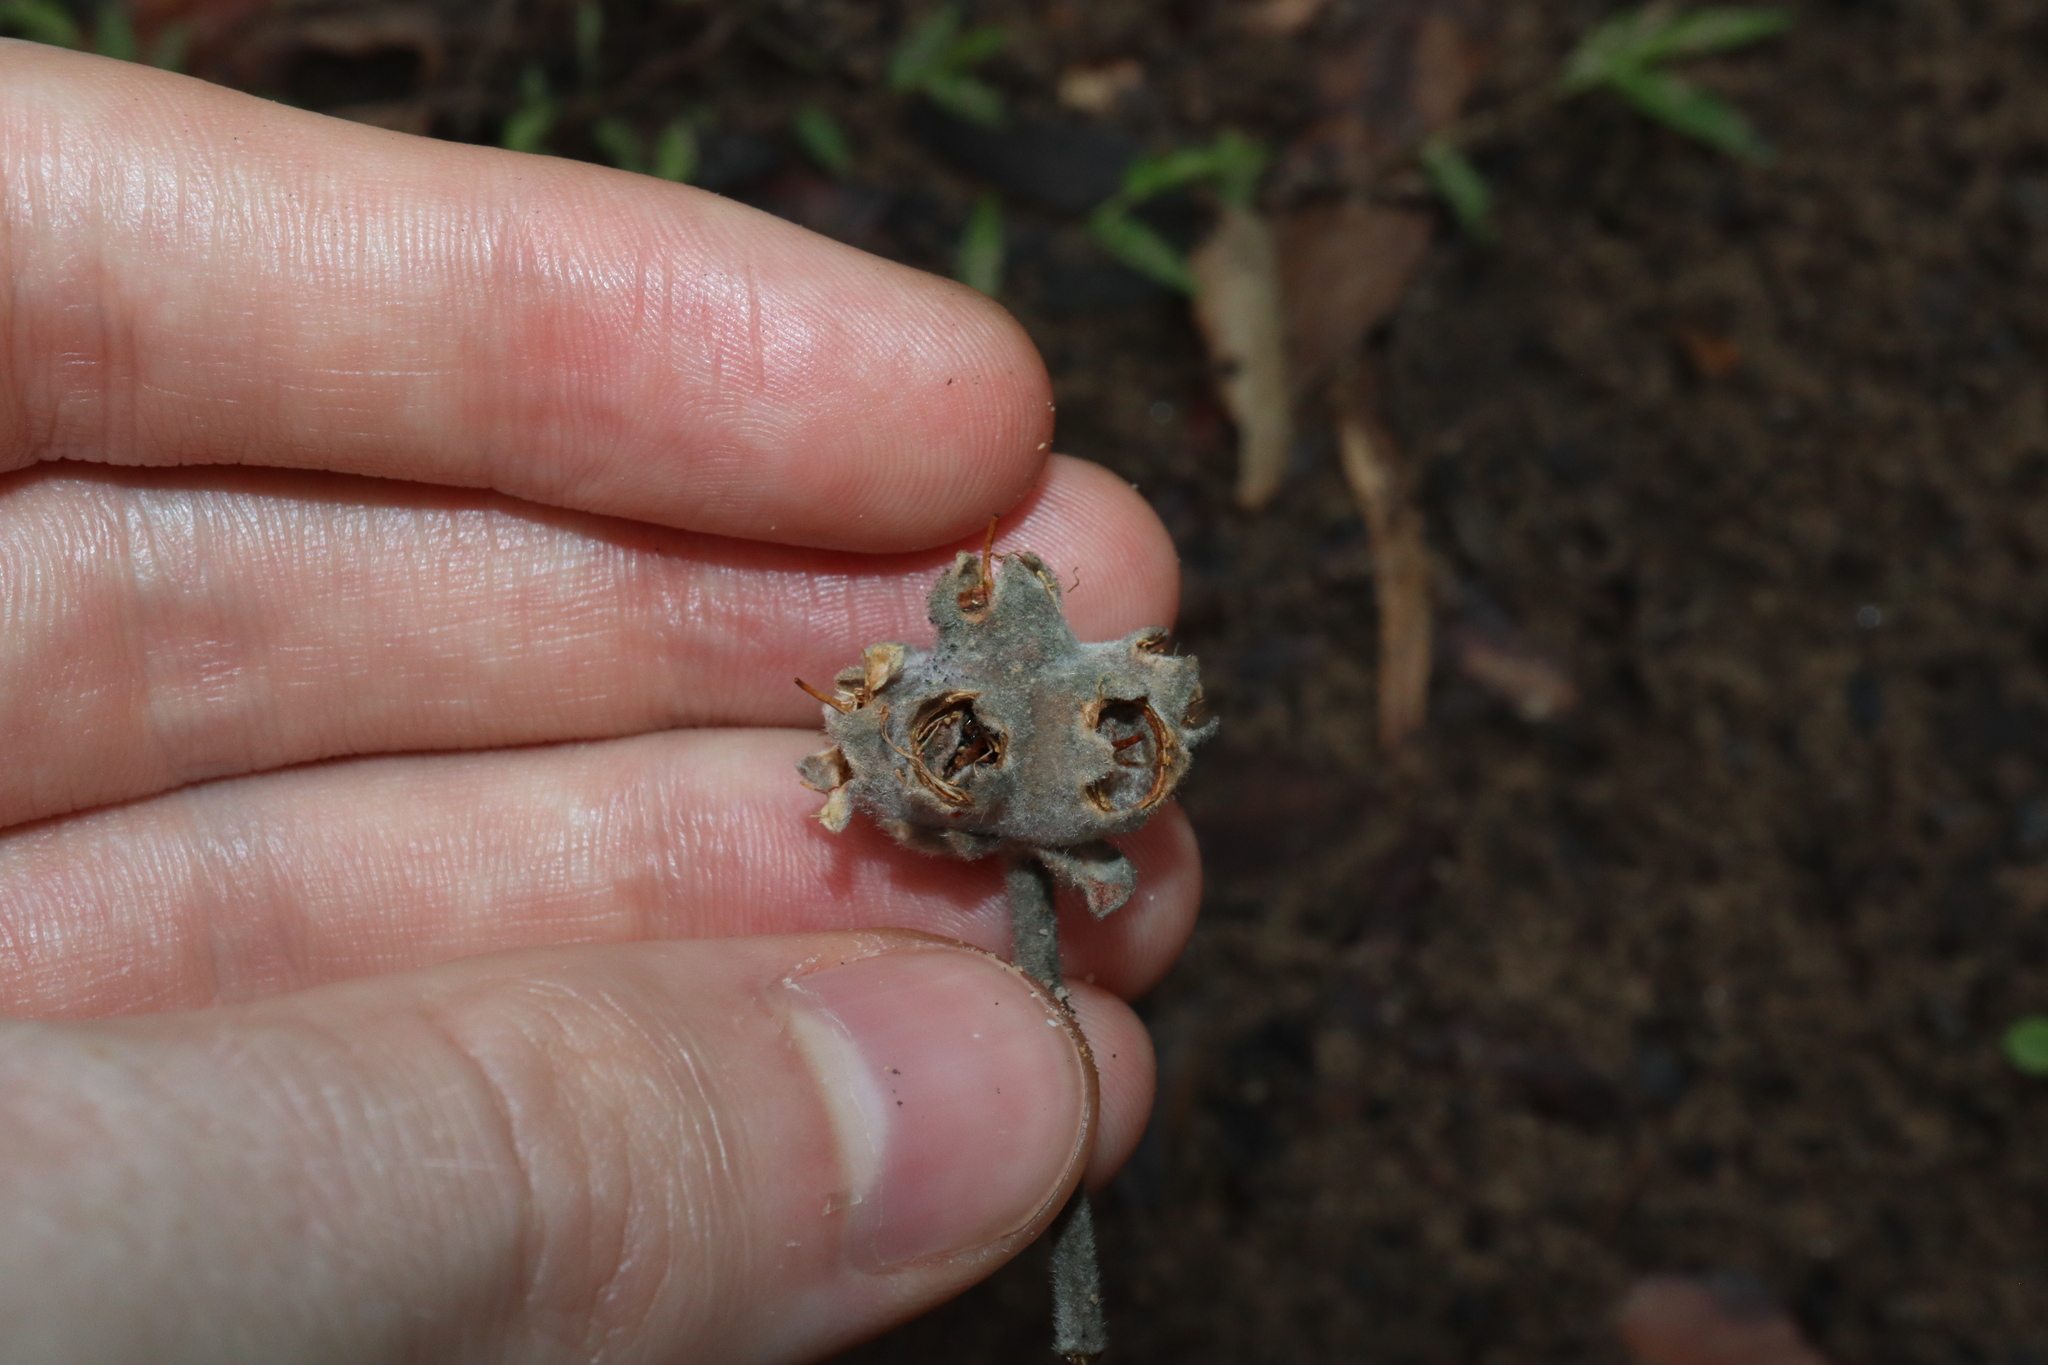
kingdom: Plantae
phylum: Tracheophyta
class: Magnoliopsida
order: Myrtales
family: Myrtaceae
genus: Syncarpia
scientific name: Syncarpia glomulifera
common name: Turpentine tree
